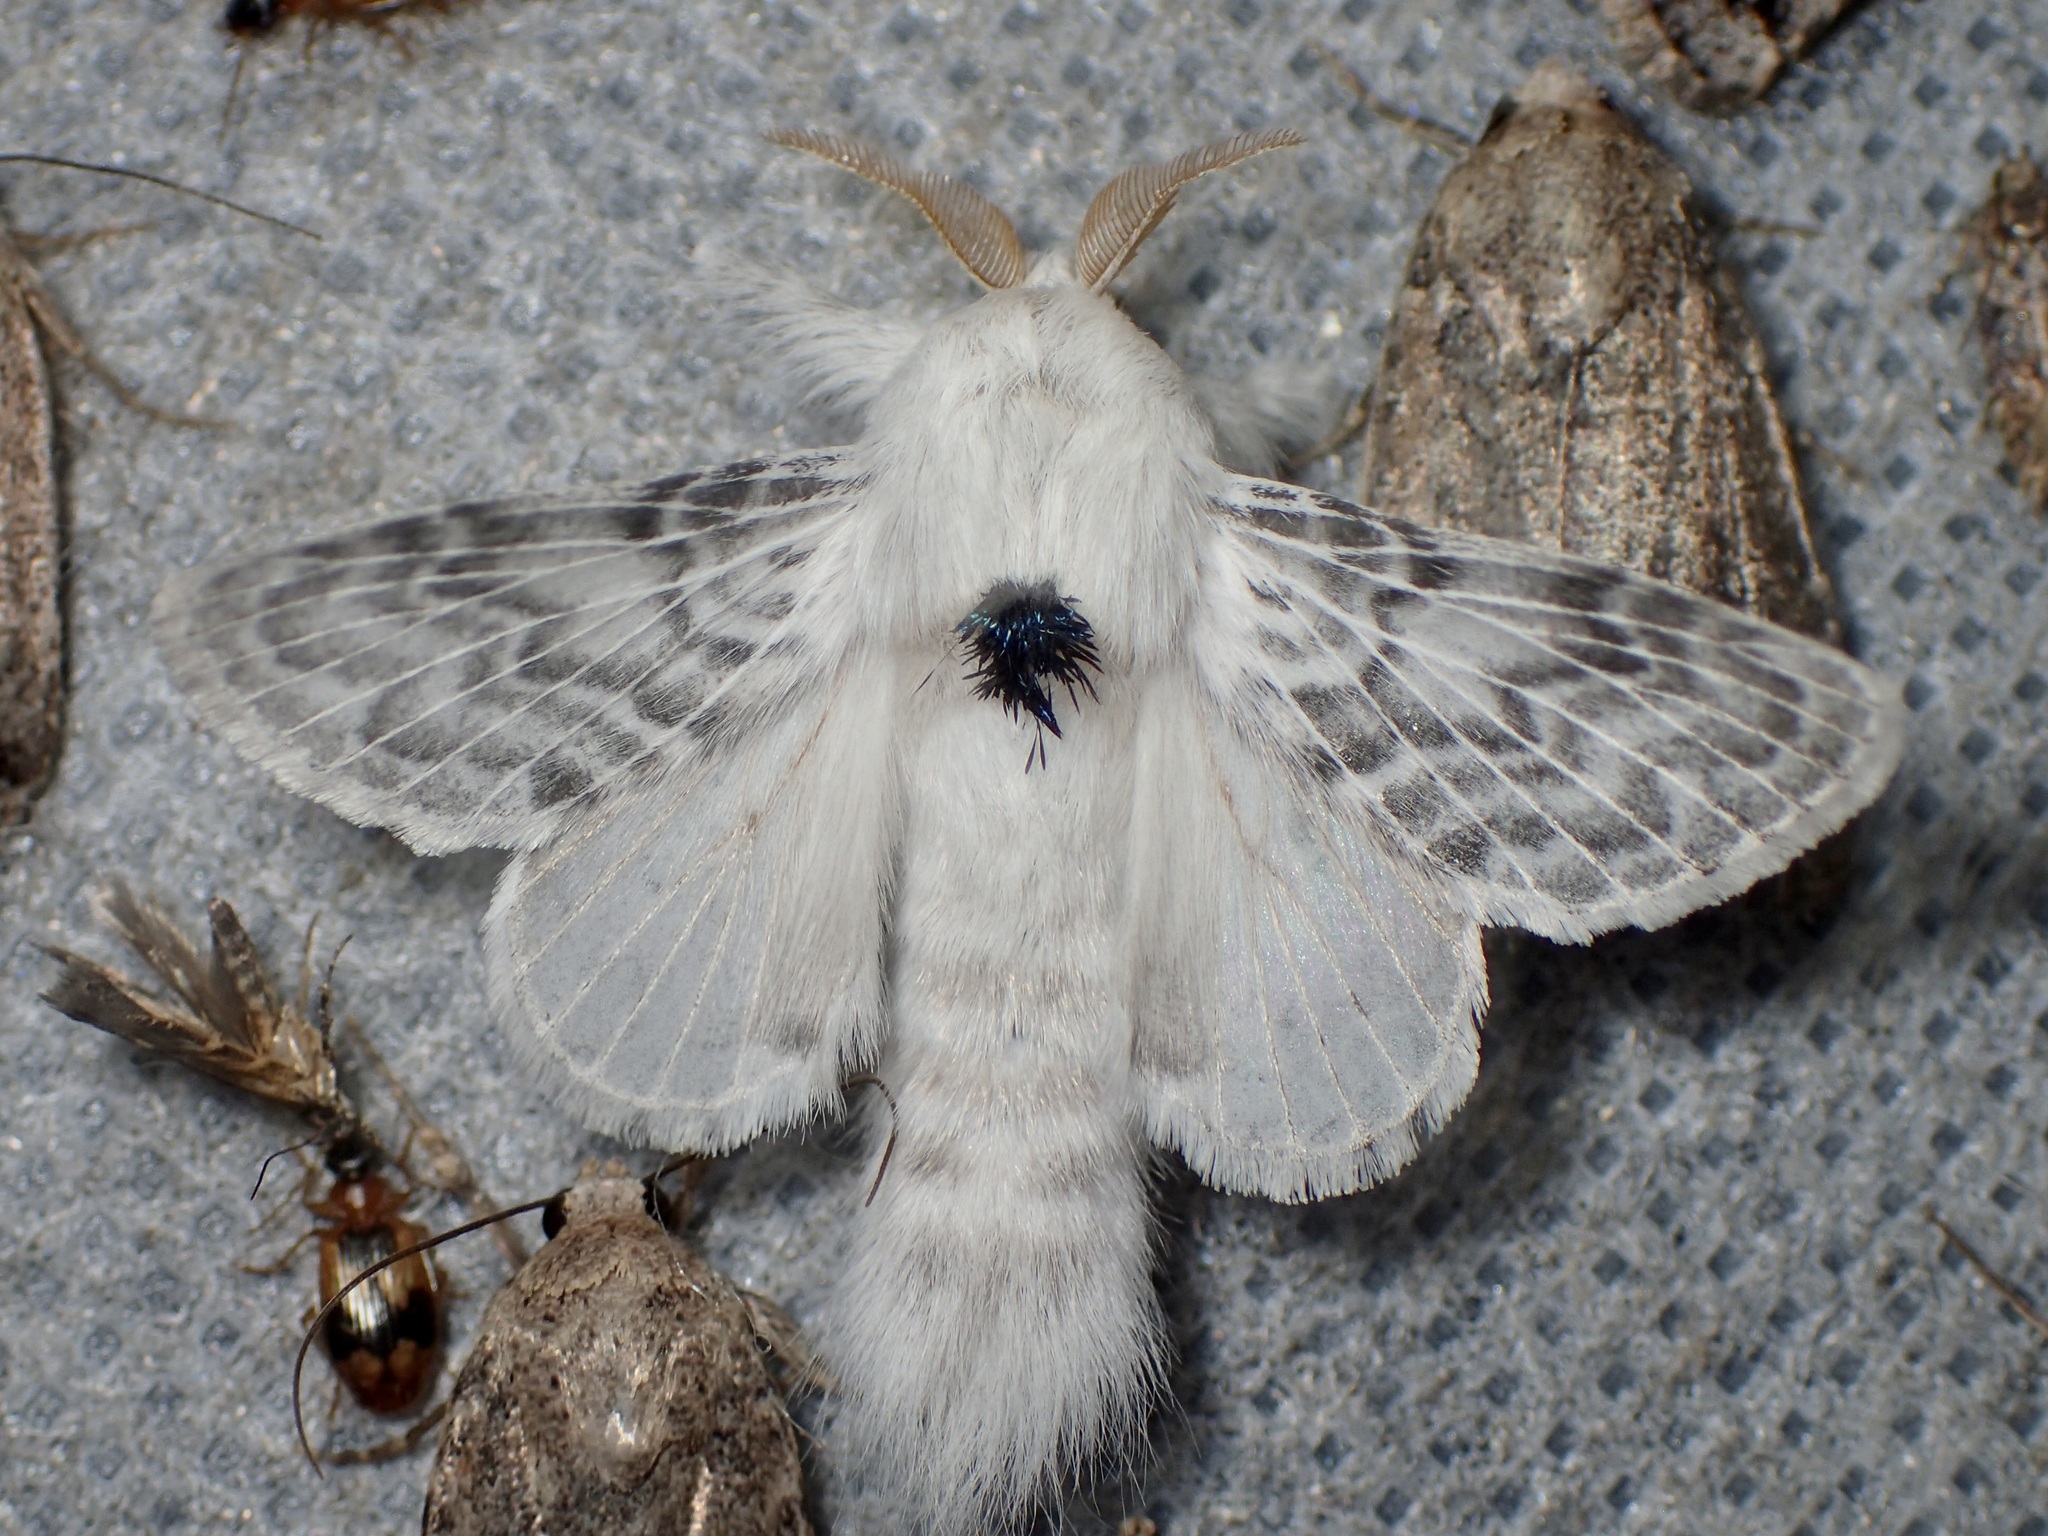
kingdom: Animalia
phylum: Arthropoda
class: Insecta
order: Lepidoptera
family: Lasiocampidae
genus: Apotolype
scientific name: Apotolype brevicrista
